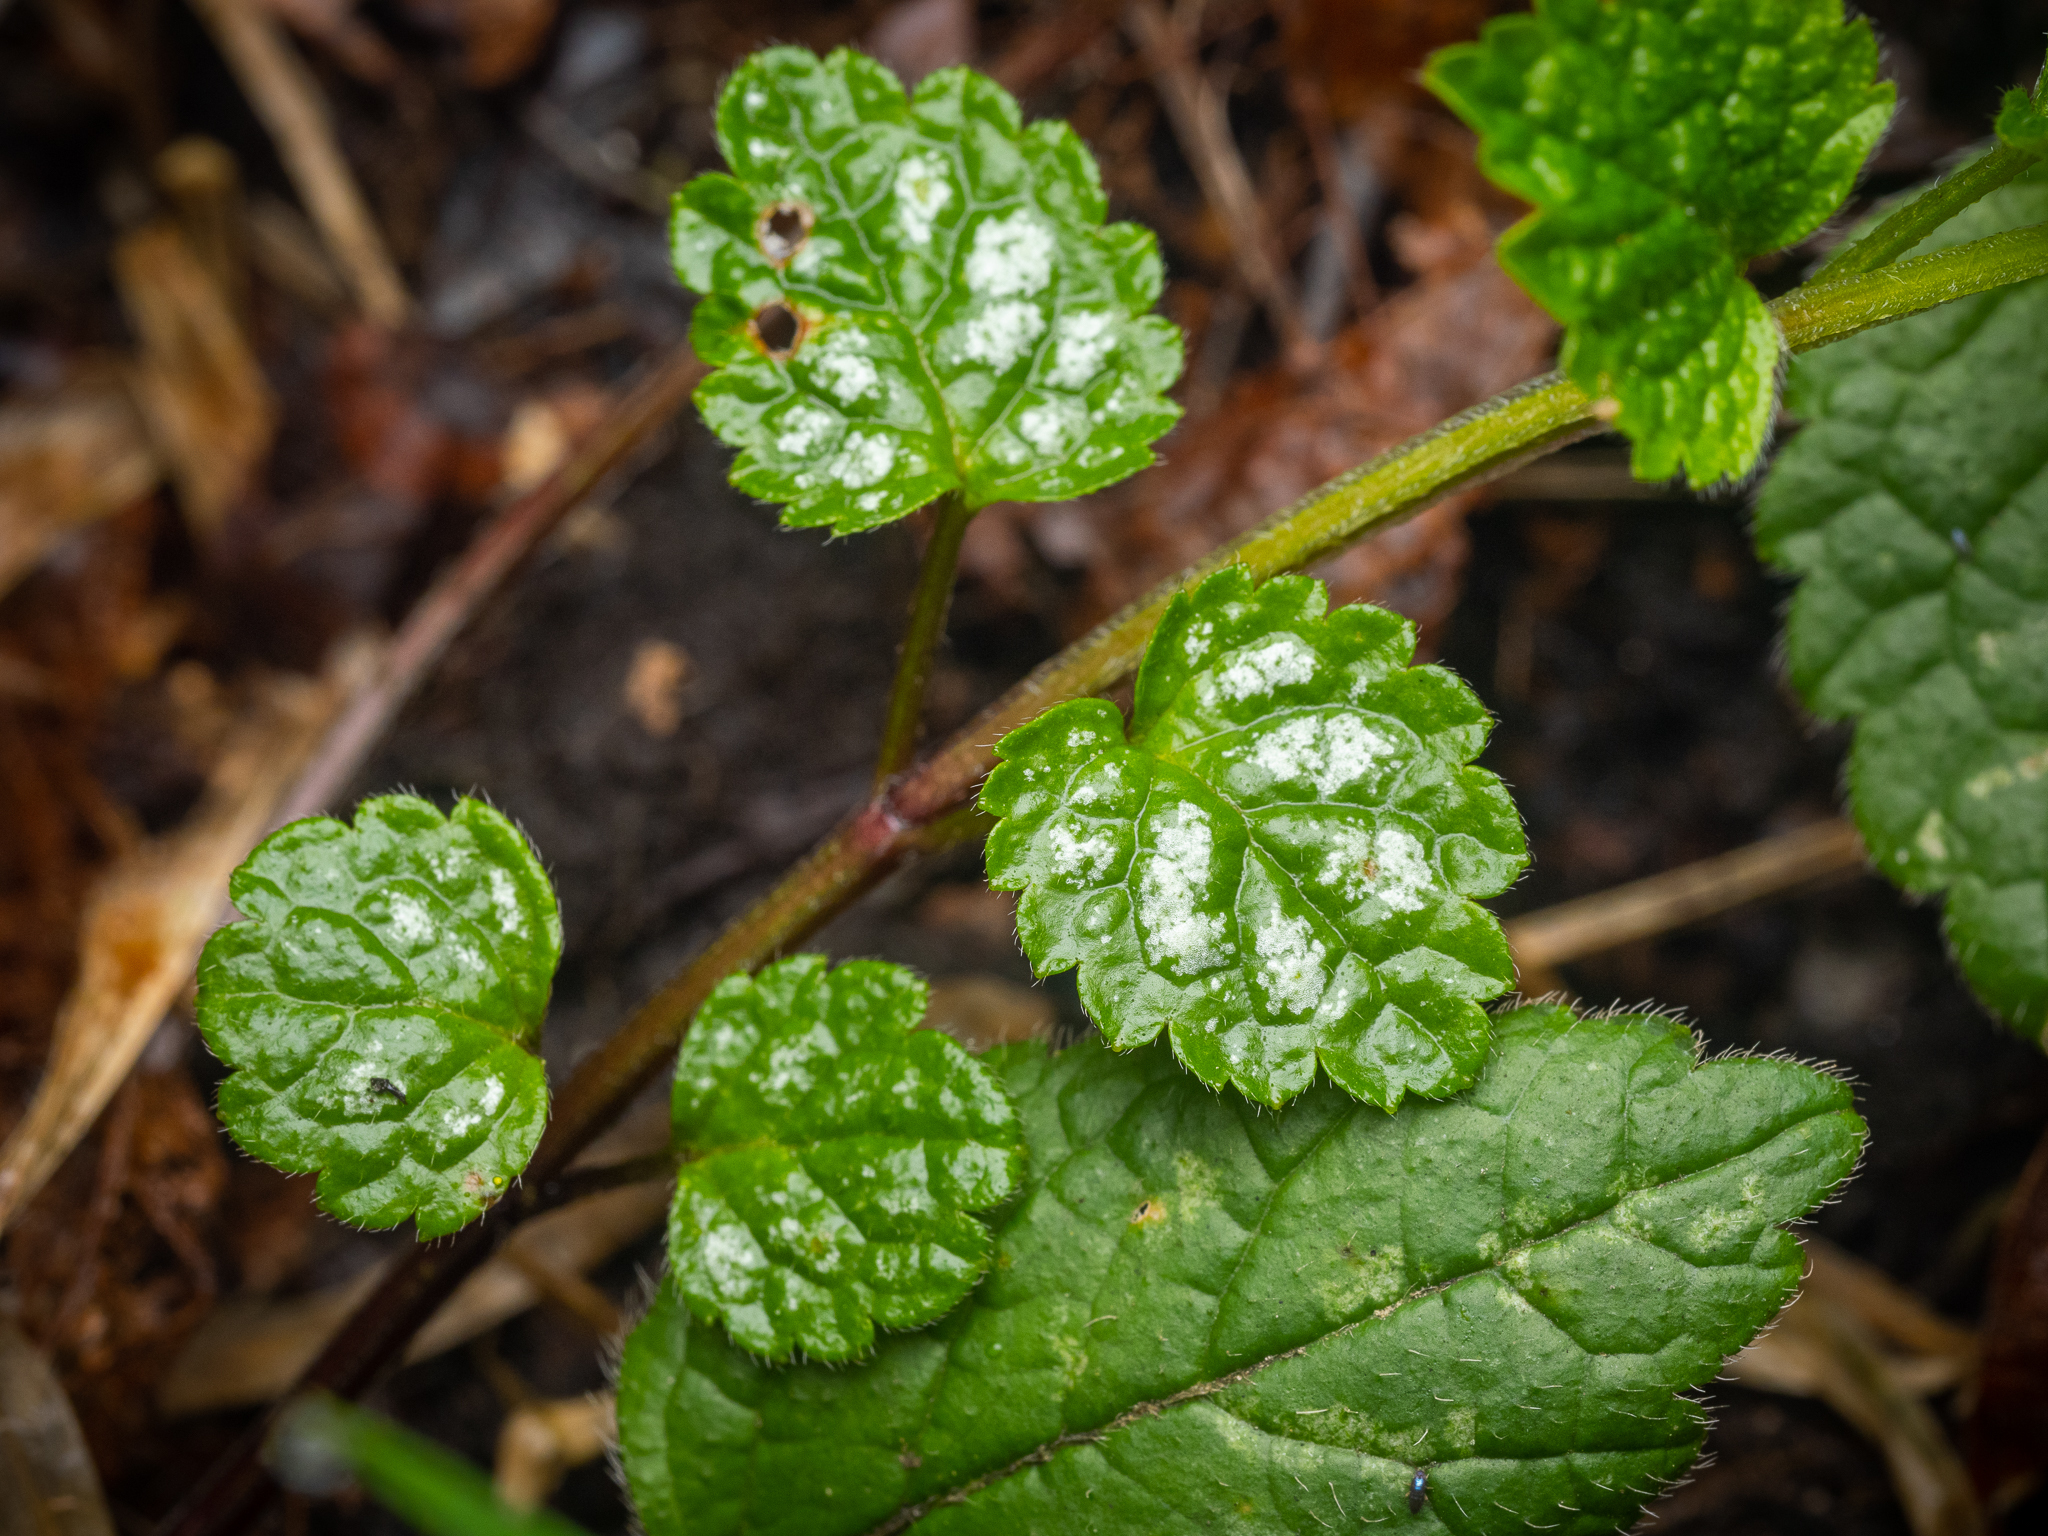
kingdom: Plantae
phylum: Tracheophyta
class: Magnoliopsida
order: Lamiales
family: Lamiaceae
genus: Lamium
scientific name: Lamium galeobdolon
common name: Yellow archangel
